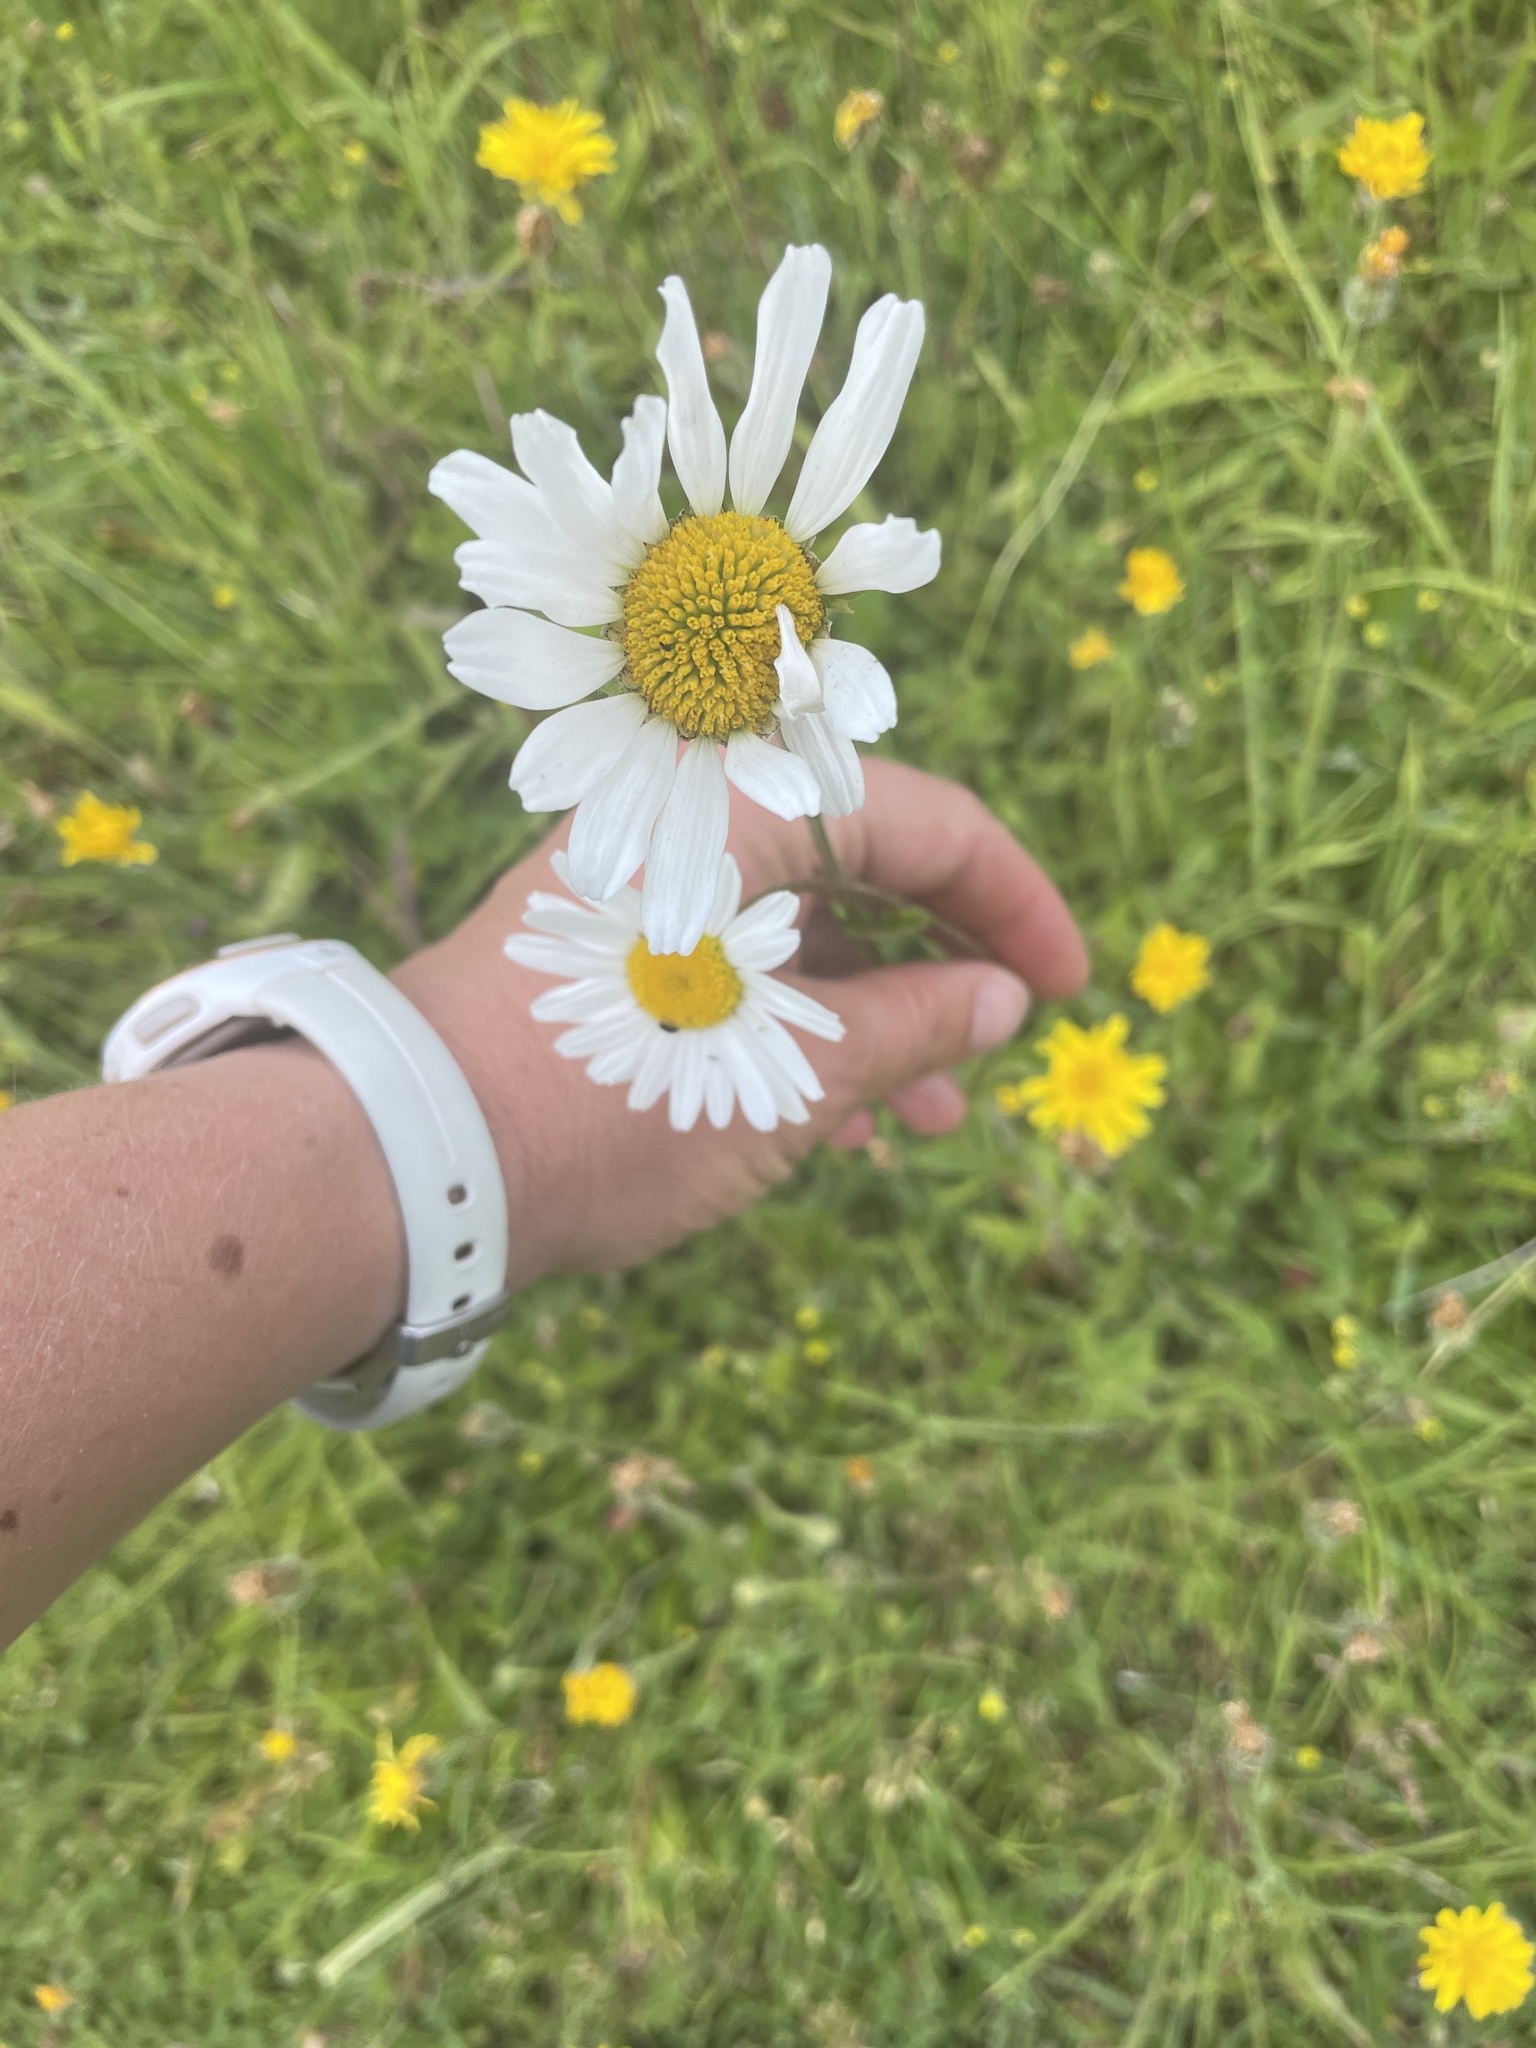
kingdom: Plantae
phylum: Tracheophyta
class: Magnoliopsida
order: Asterales
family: Asteraceae
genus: Leucanthemum
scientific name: Leucanthemum vulgare
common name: Oxeye daisy
